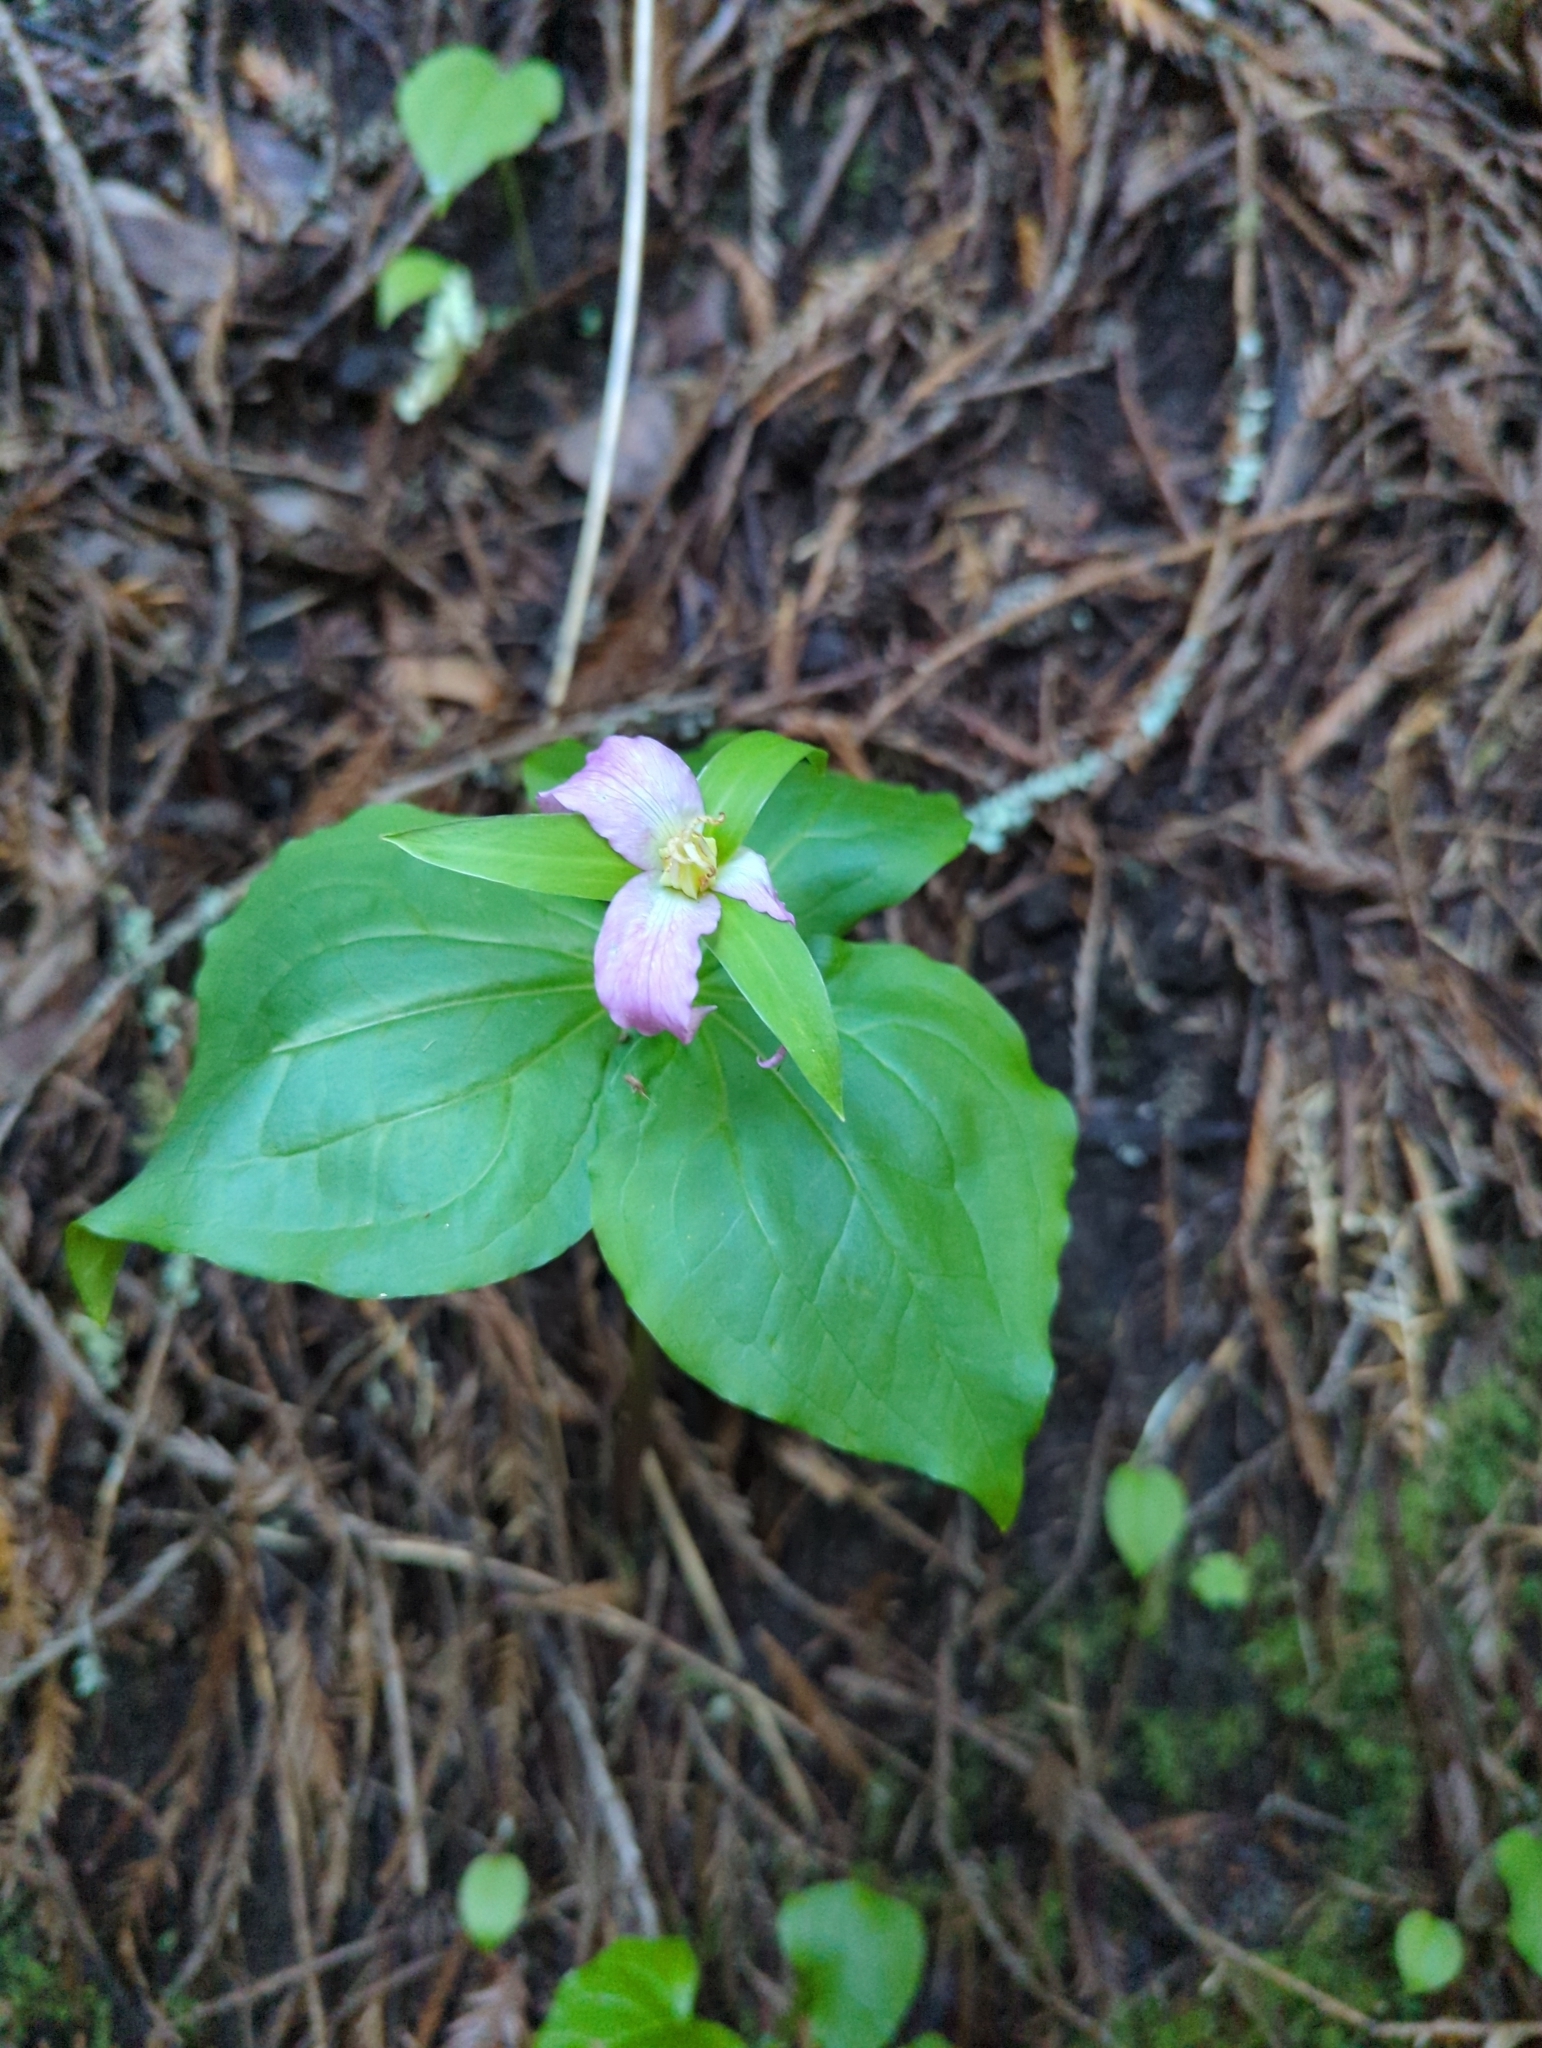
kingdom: Plantae
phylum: Tracheophyta
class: Liliopsida
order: Liliales
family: Melanthiaceae
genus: Trillium
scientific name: Trillium ovatum
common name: Pacific trillium
